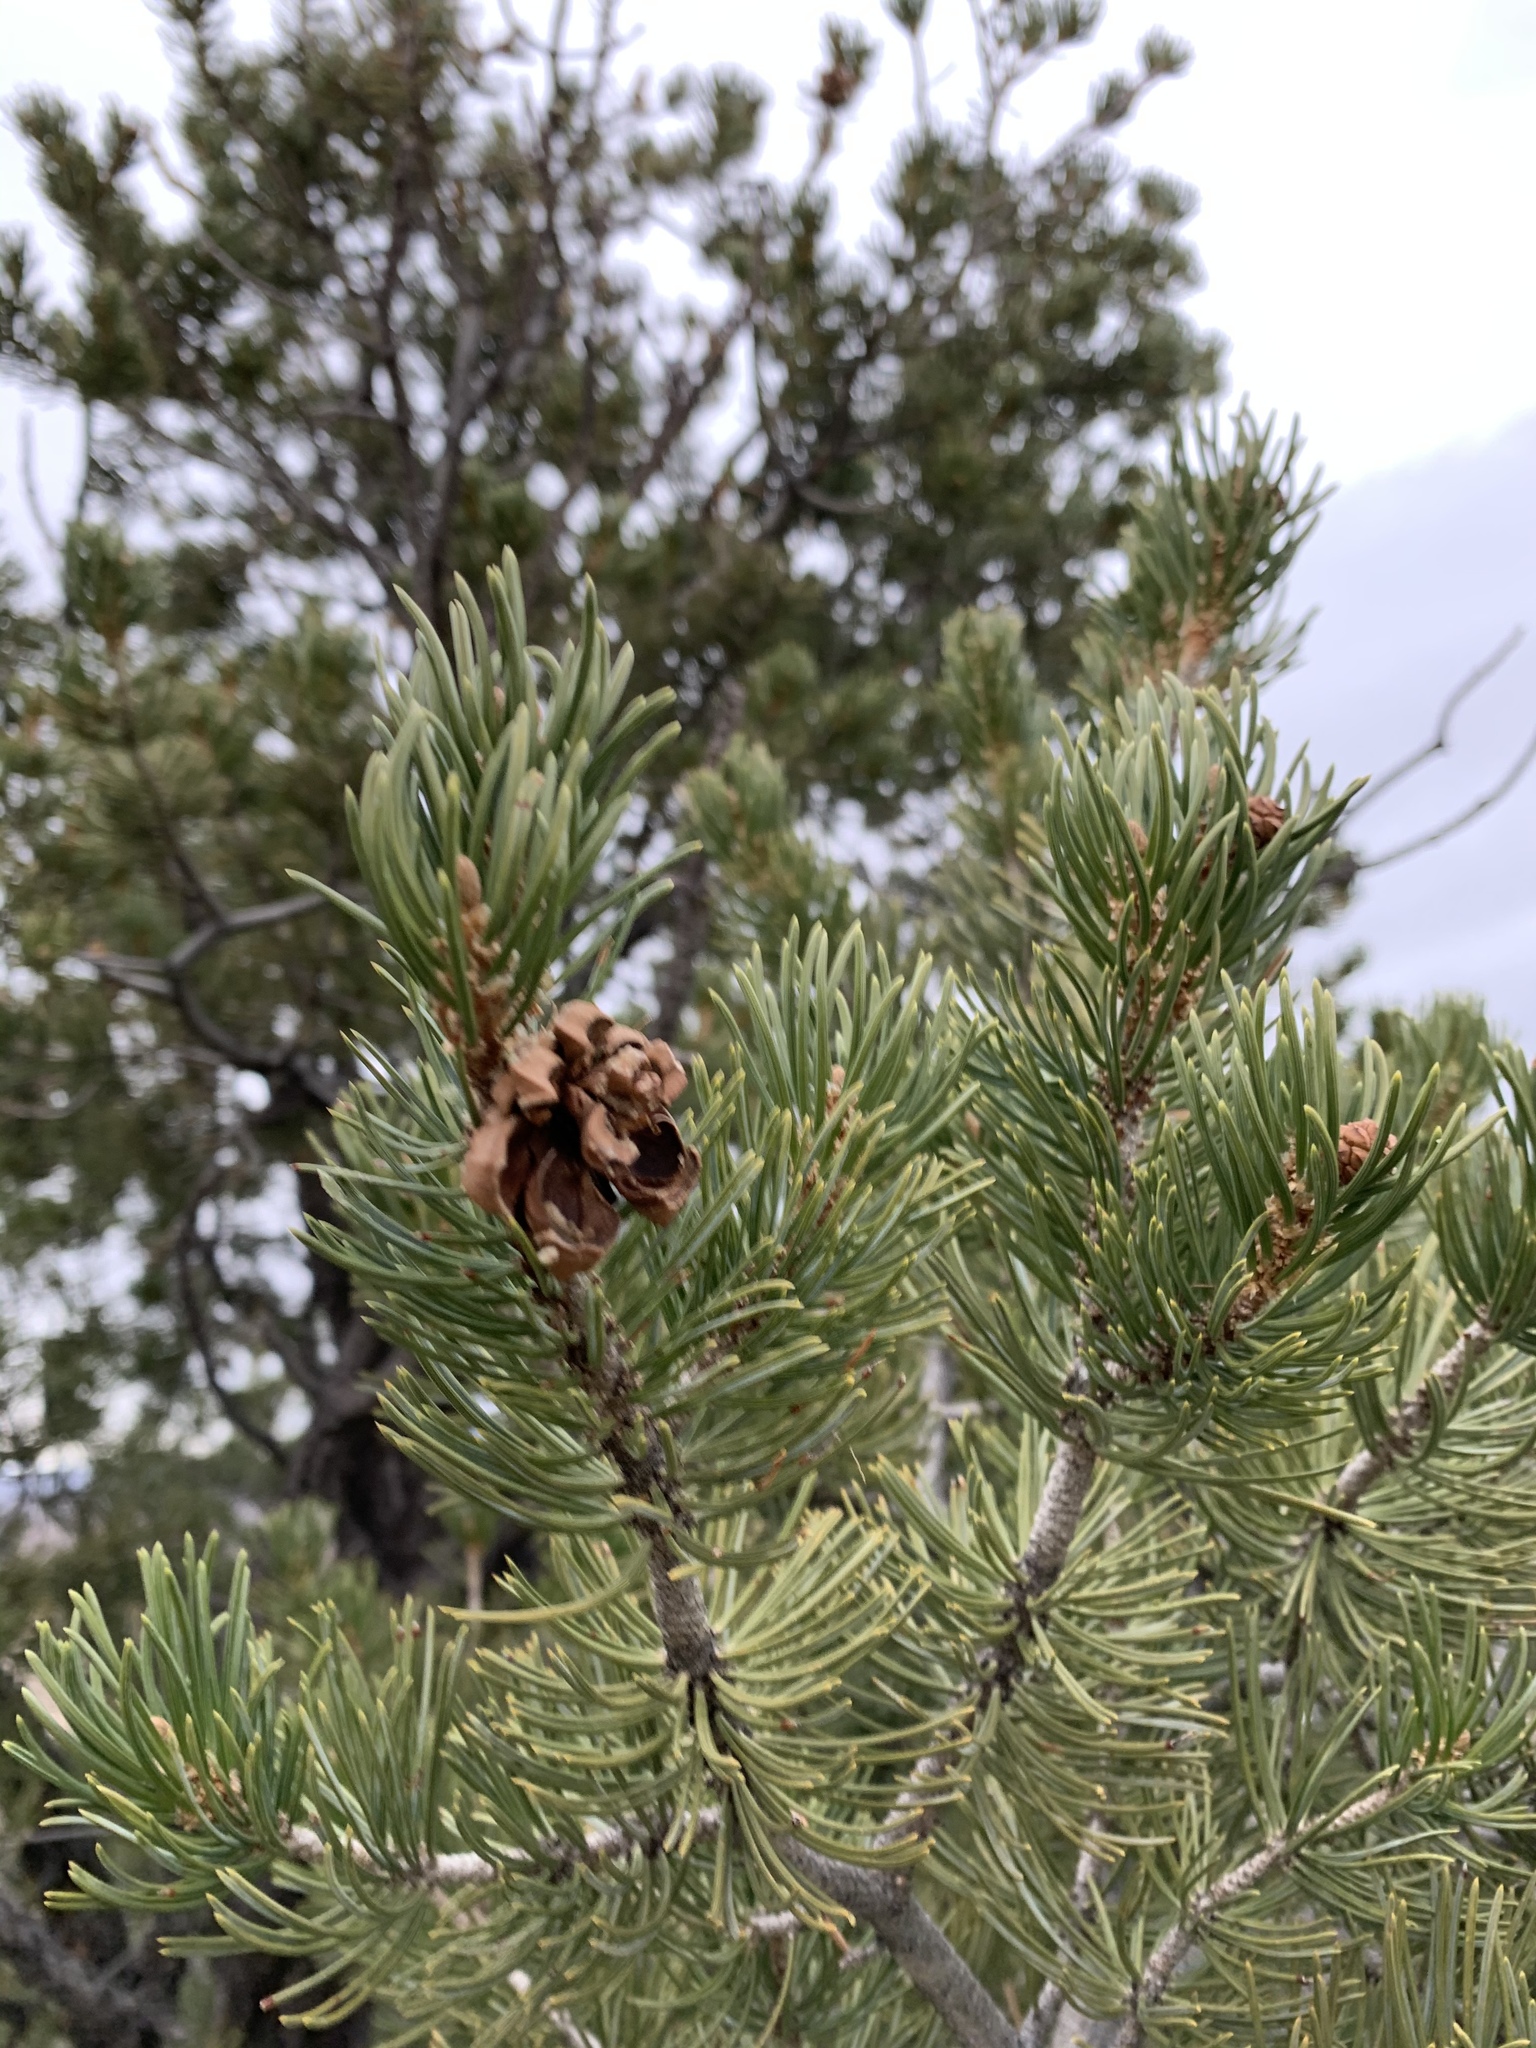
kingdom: Plantae
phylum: Tracheophyta
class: Pinopsida
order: Pinales
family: Pinaceae
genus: Pinus
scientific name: Pinus edulis
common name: Colorado pinyon
